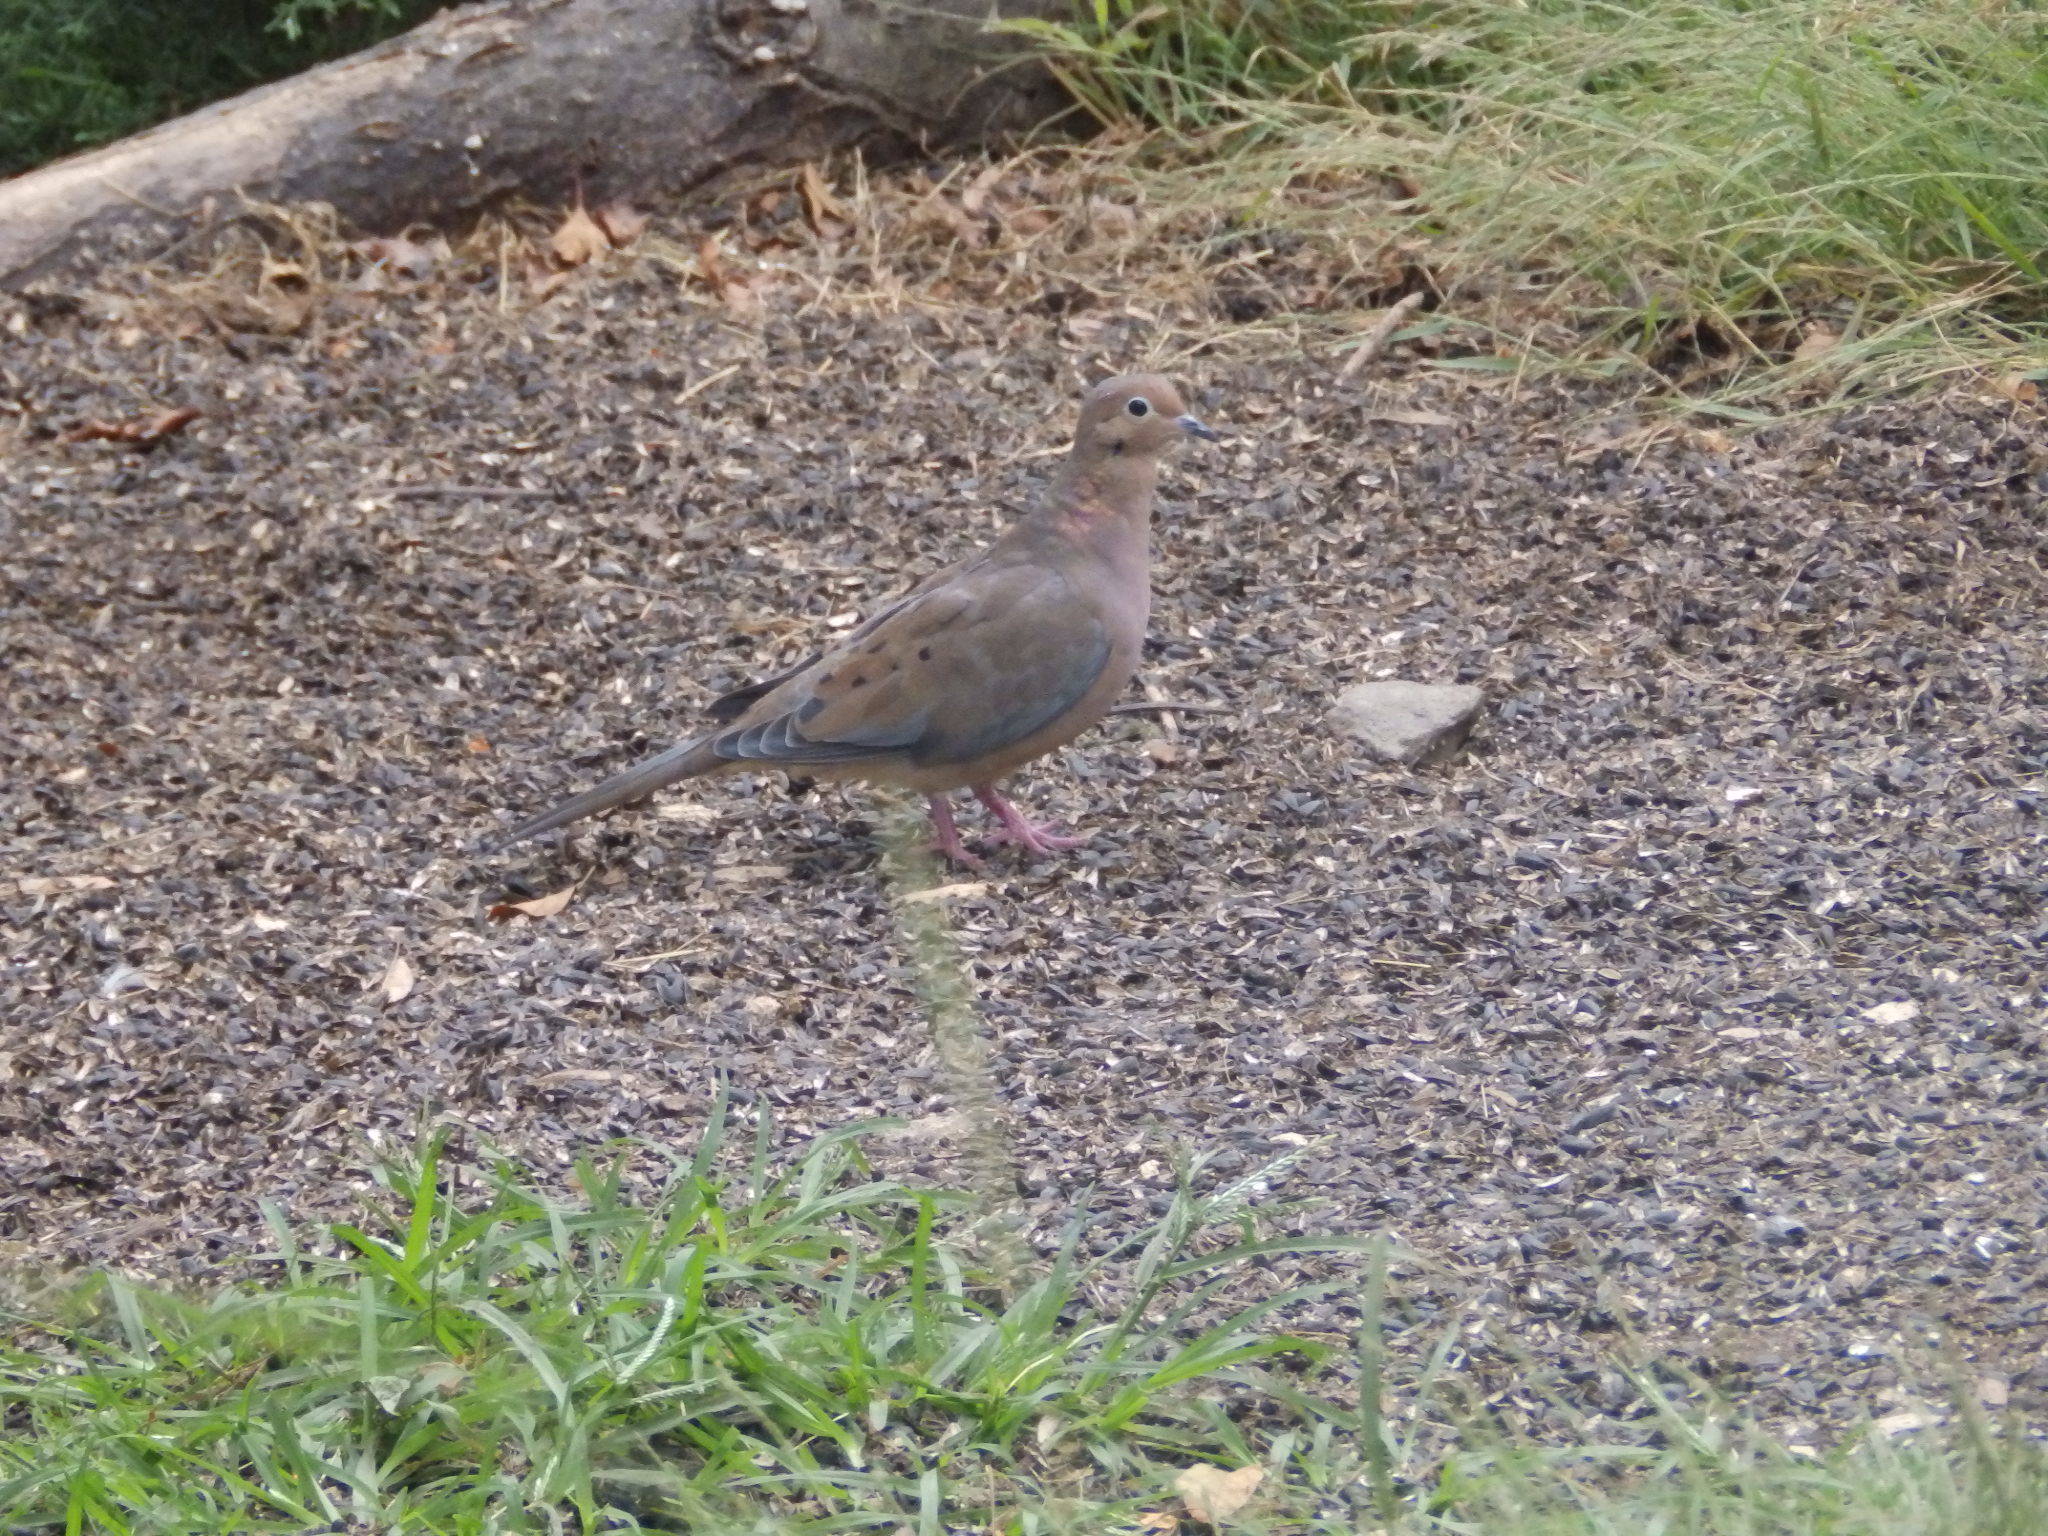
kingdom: Animalia
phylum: Chordata
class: Aves
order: Columbiformes
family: Columbidae
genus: Zenaida
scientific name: Zenaida macroura
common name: Mourning dove
